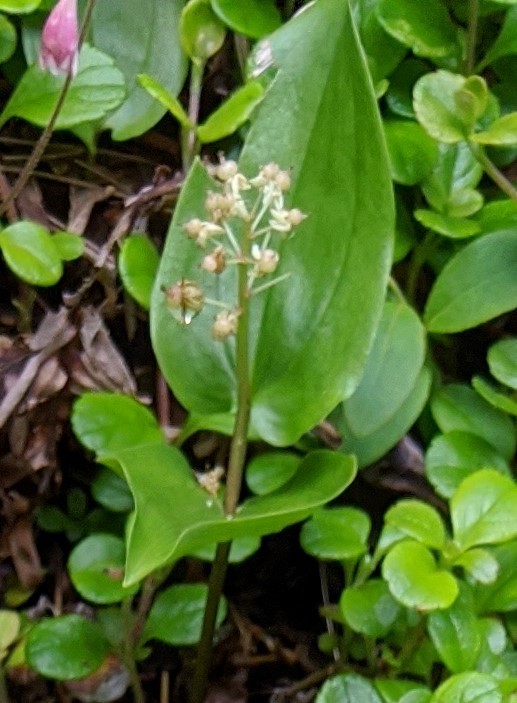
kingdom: Plantae
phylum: Tracheophyta
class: Liliopsida
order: Asparagales
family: Asparagaceae
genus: Maianthemum
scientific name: Maianthemum canadense
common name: False lily-of-the-valley
